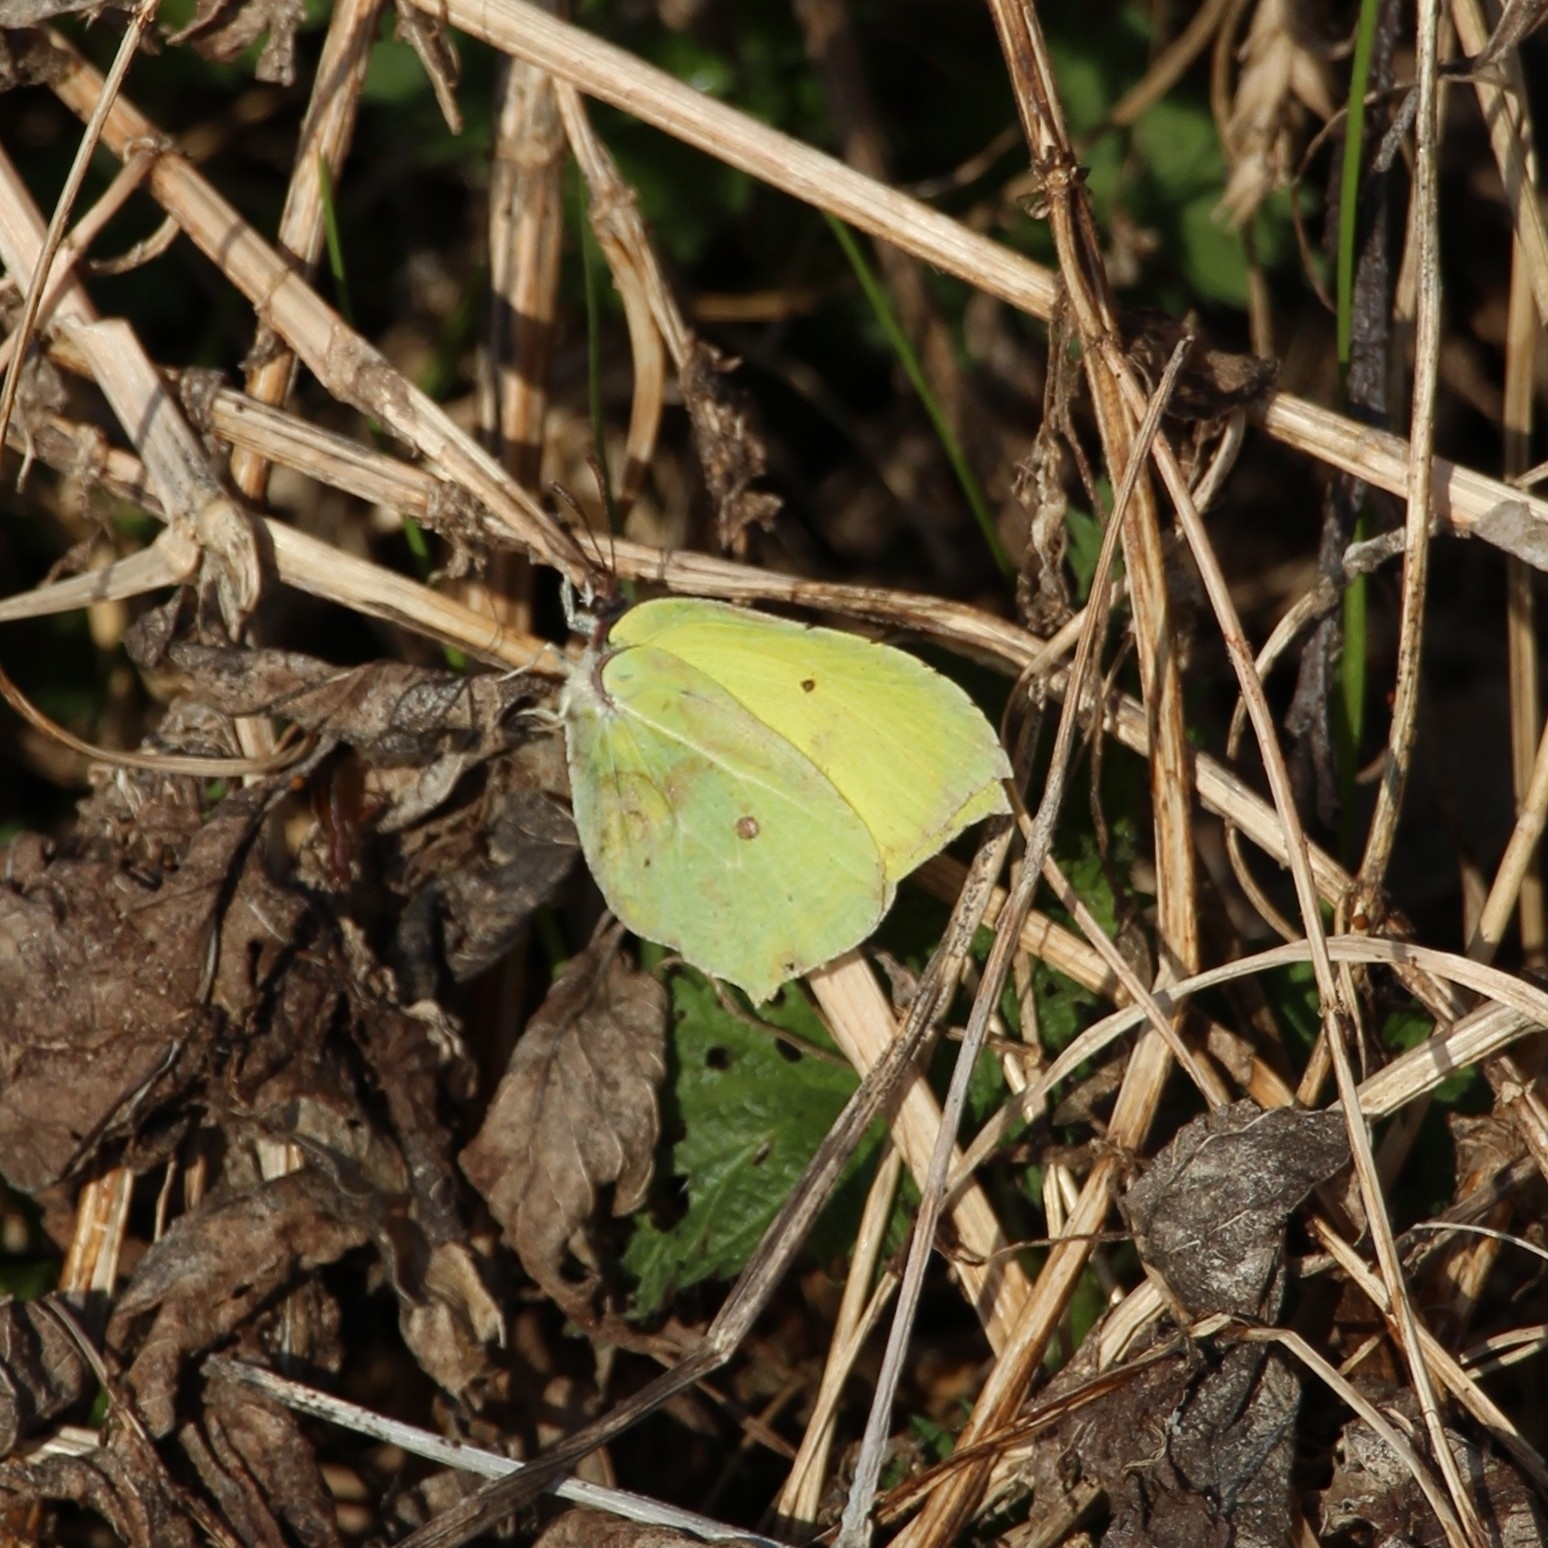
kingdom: Animalia
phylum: Arthropoda
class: Insecta
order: Lepidoptera
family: Pieridae
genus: Gonepteryx
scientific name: Gonepteryx rhamni
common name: Brimstone
